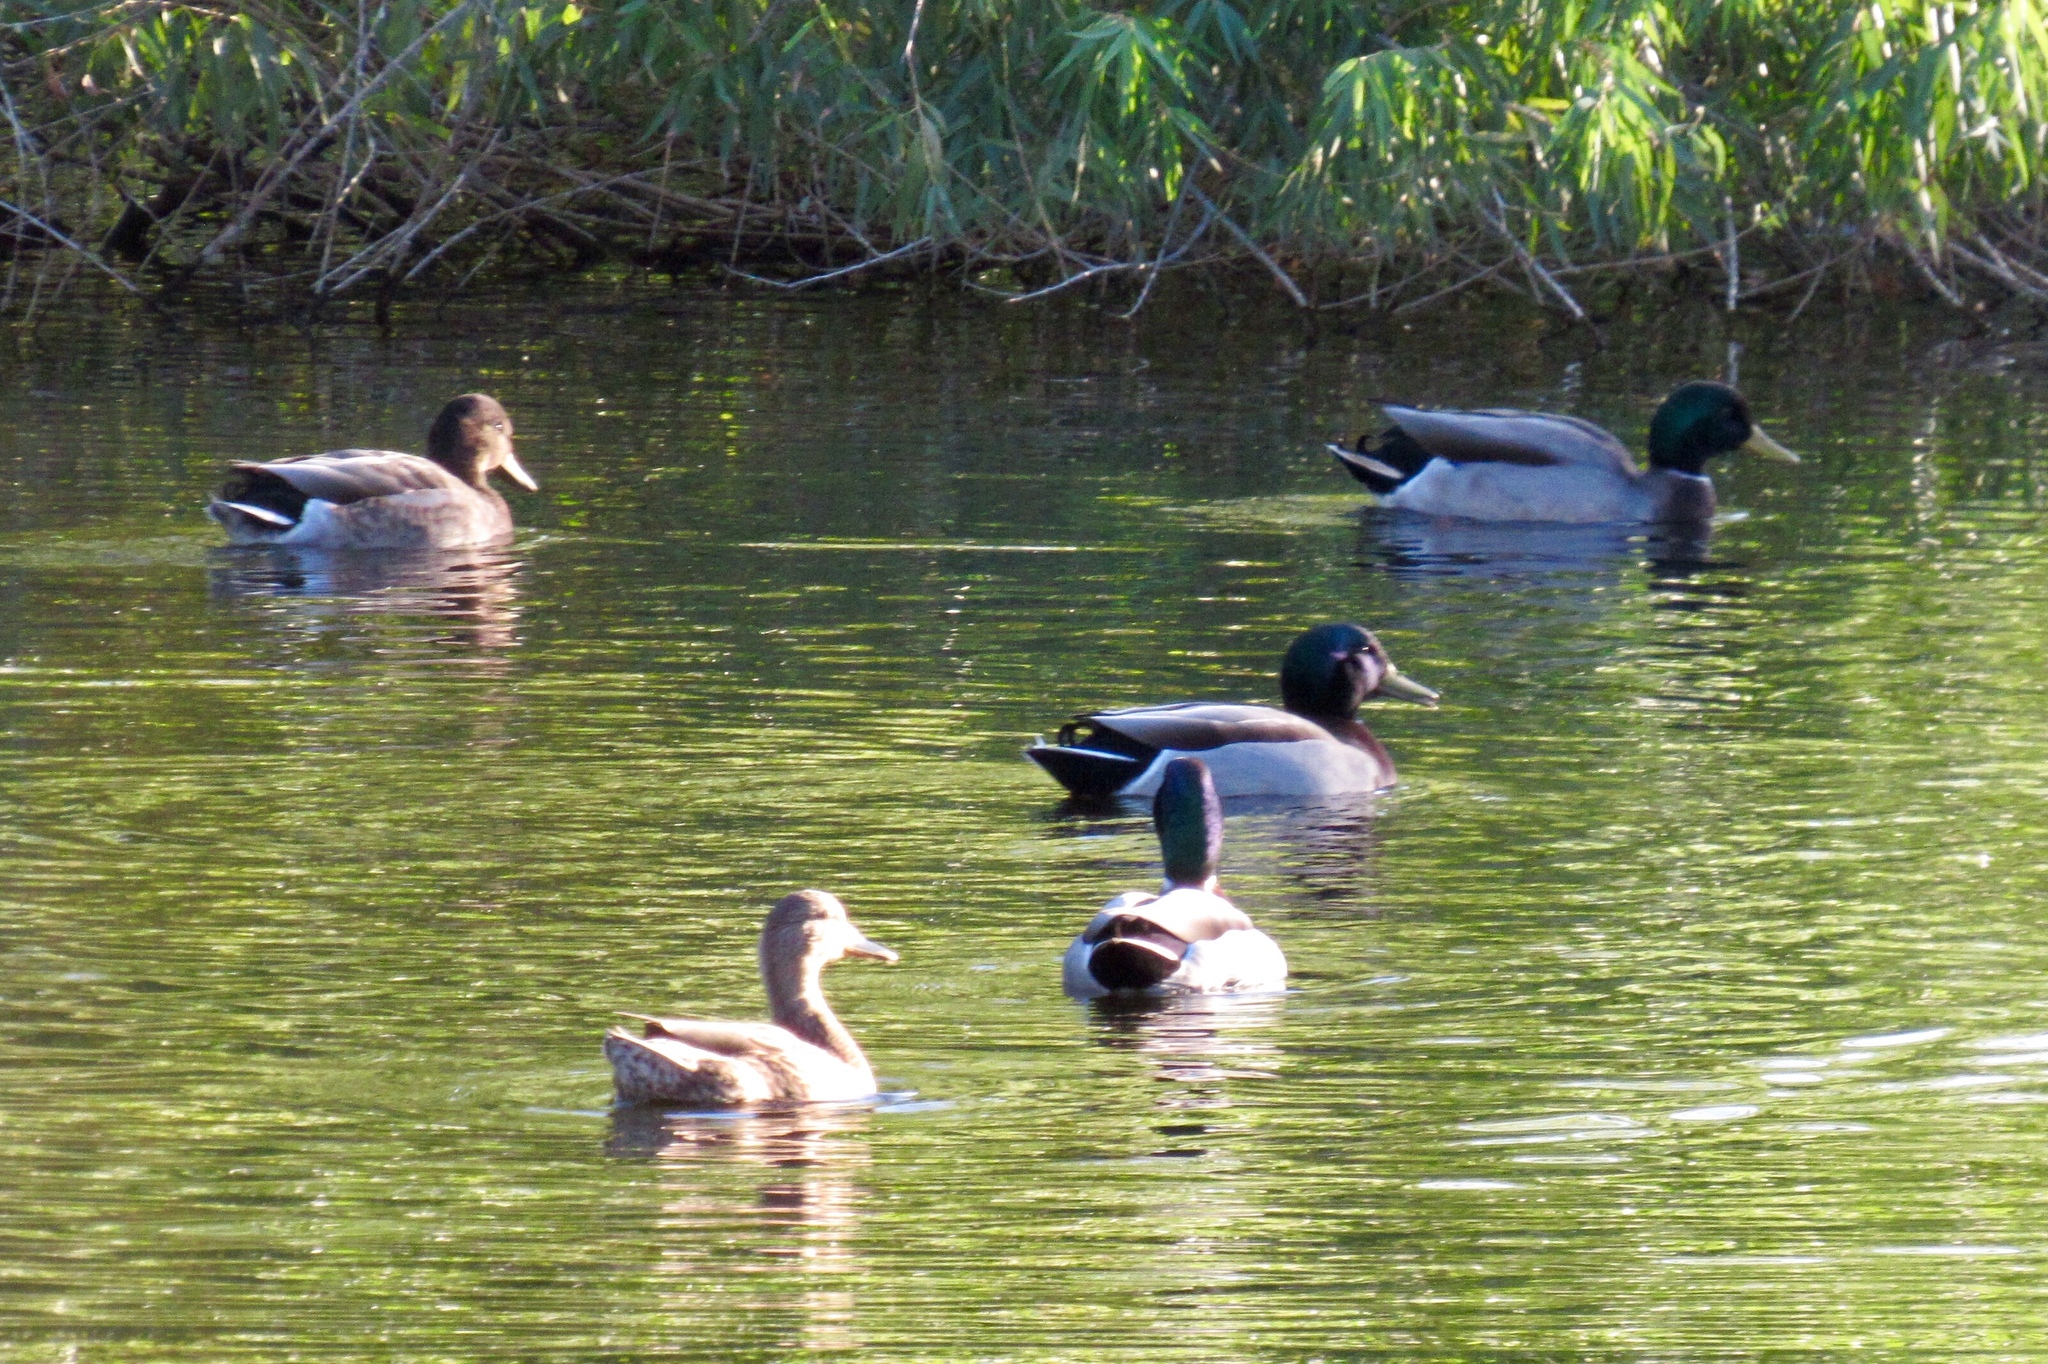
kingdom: Animalia
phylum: Chordata
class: Aves
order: Anseriformes
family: Anatidae
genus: Anas
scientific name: Anas platyrhynchos
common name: Mallard
